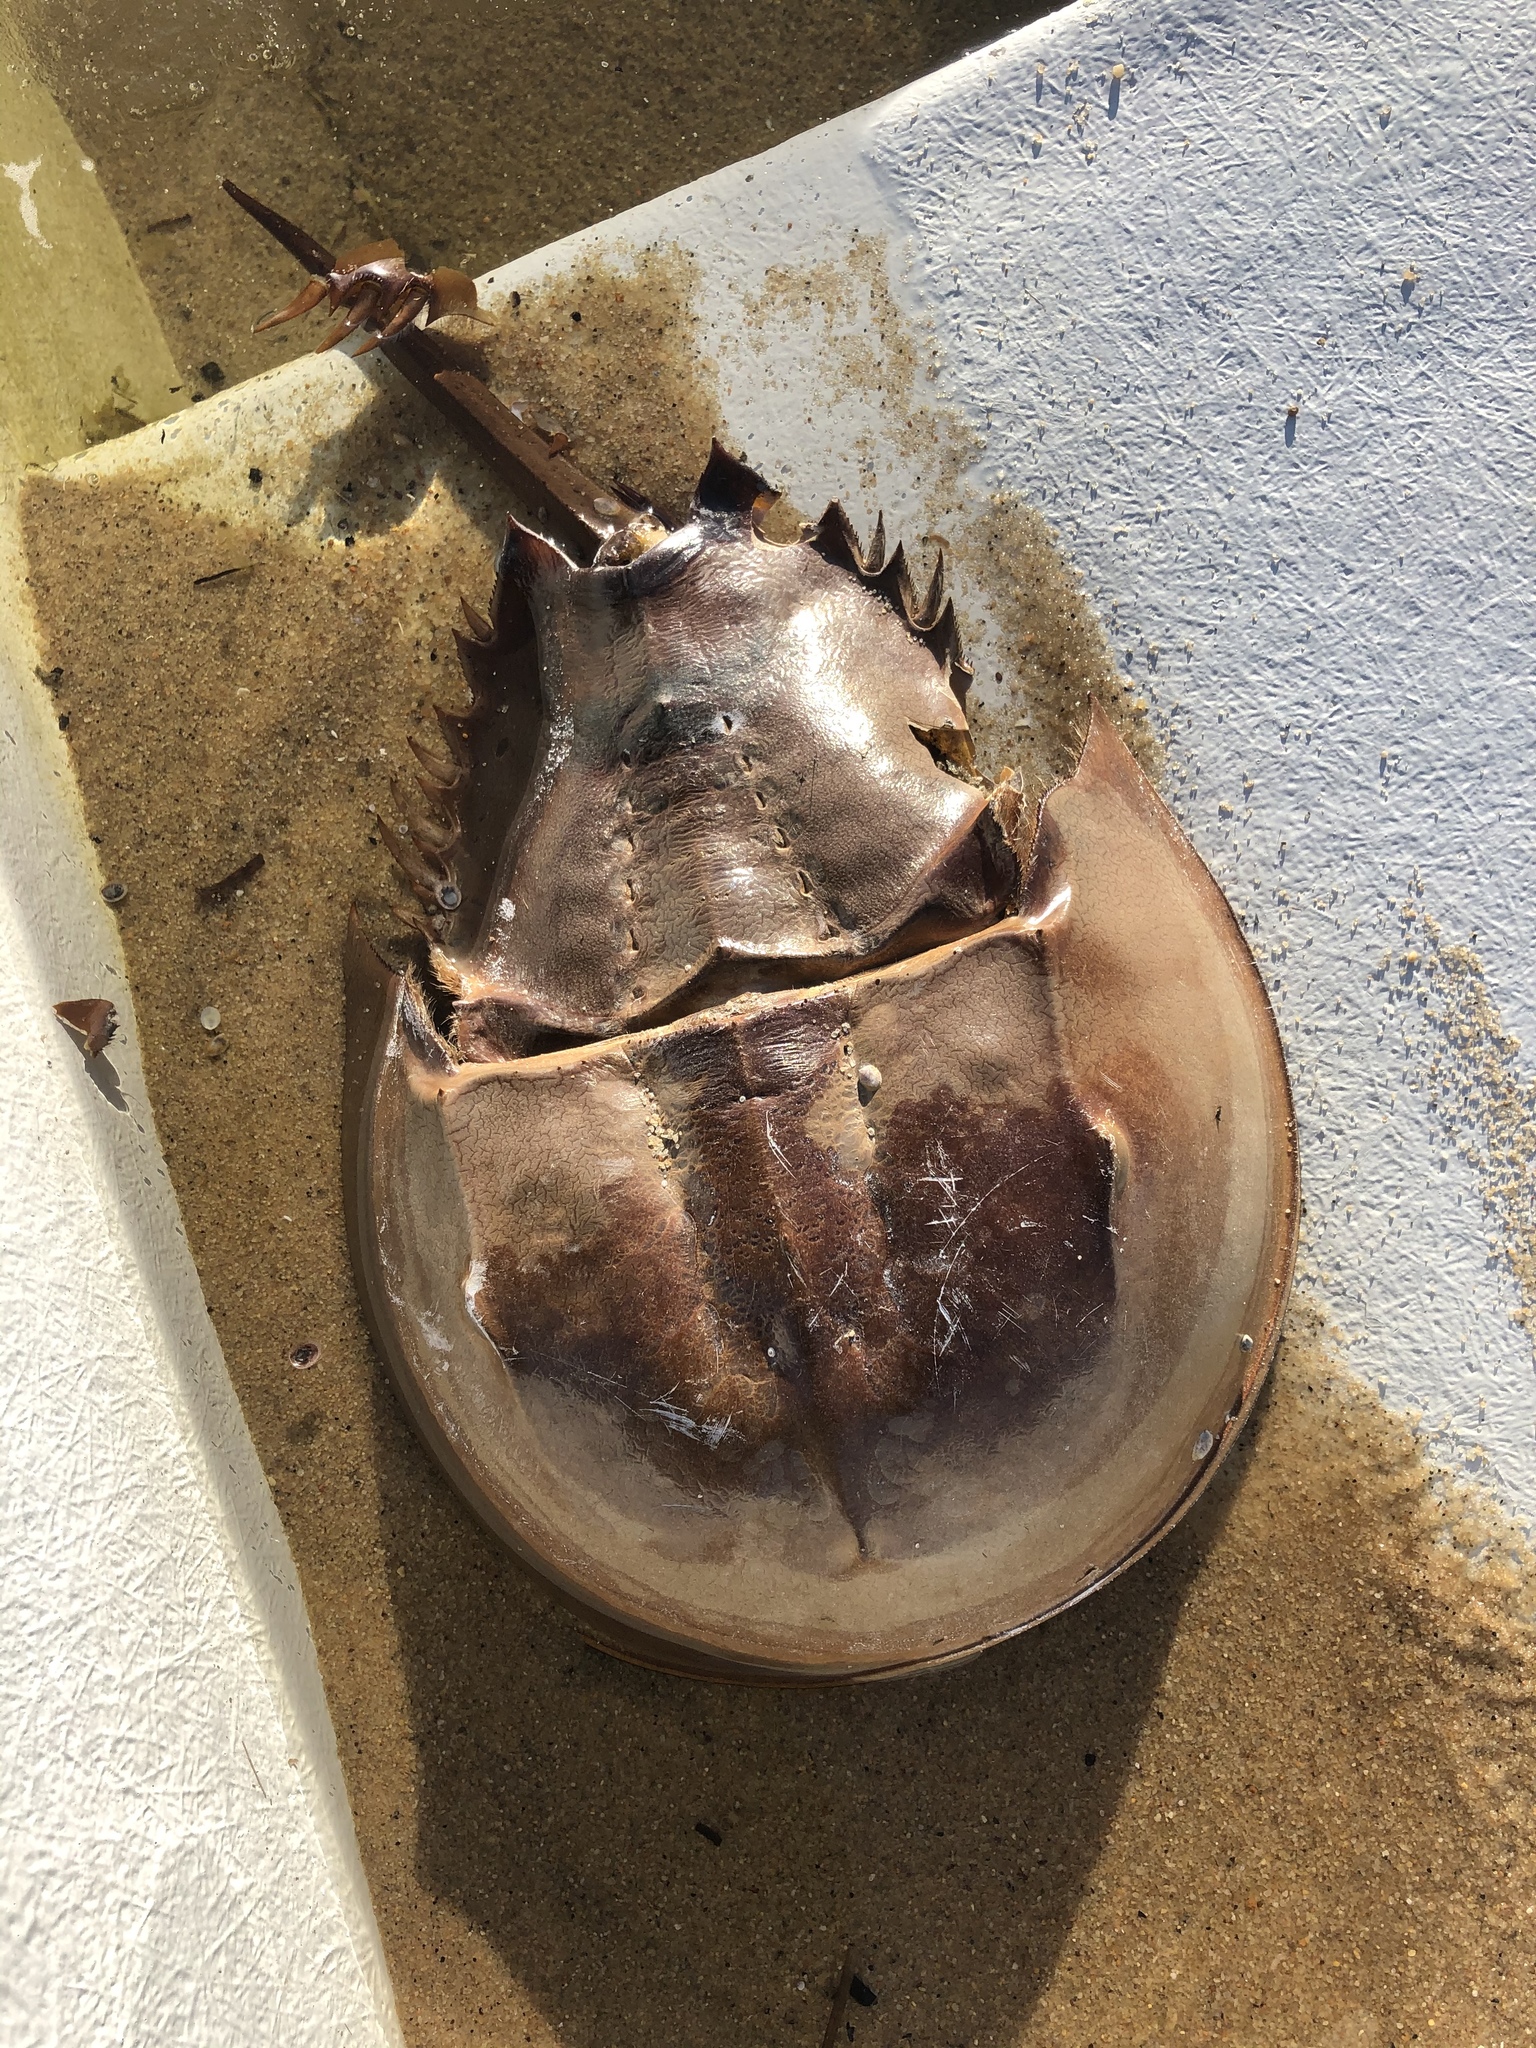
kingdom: Animalia
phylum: Arthropoda
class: Merostomata
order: Xiphosurida
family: Limulidae
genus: Limulus
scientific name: Limulus polyphemus
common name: Horseshoe crab
